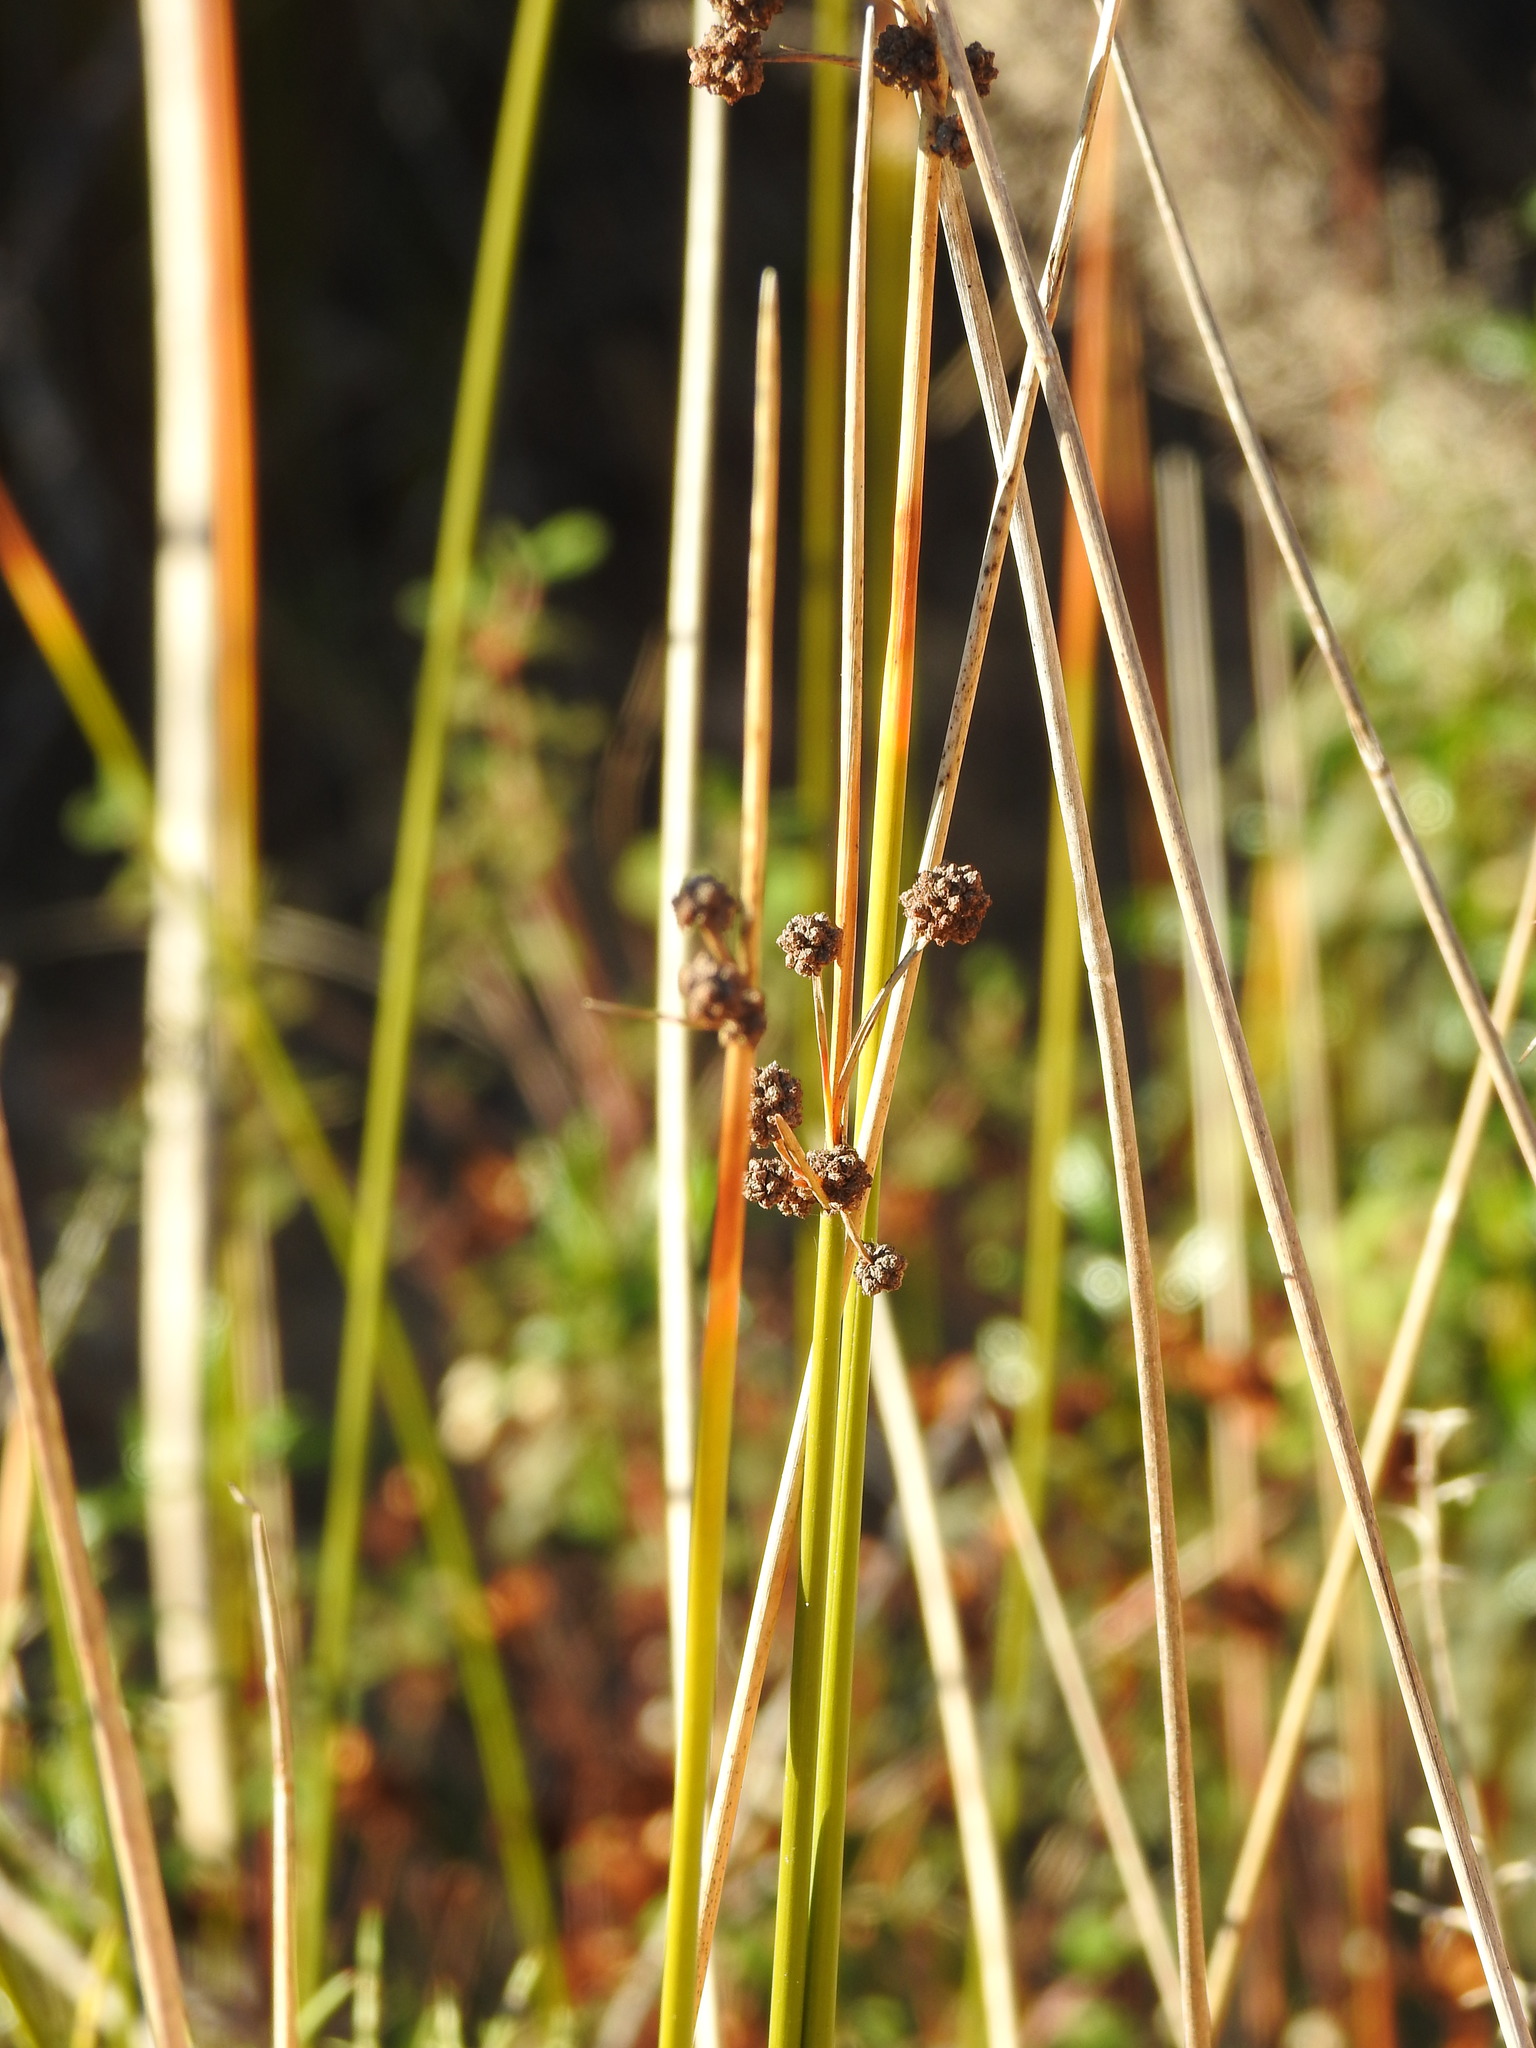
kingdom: Plantae
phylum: Tracheophyta
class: Liliopsida
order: Poales
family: Cyperaceae
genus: Scirpoides
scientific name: Scirpoides holoschoenus
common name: Round-headed club-rush
